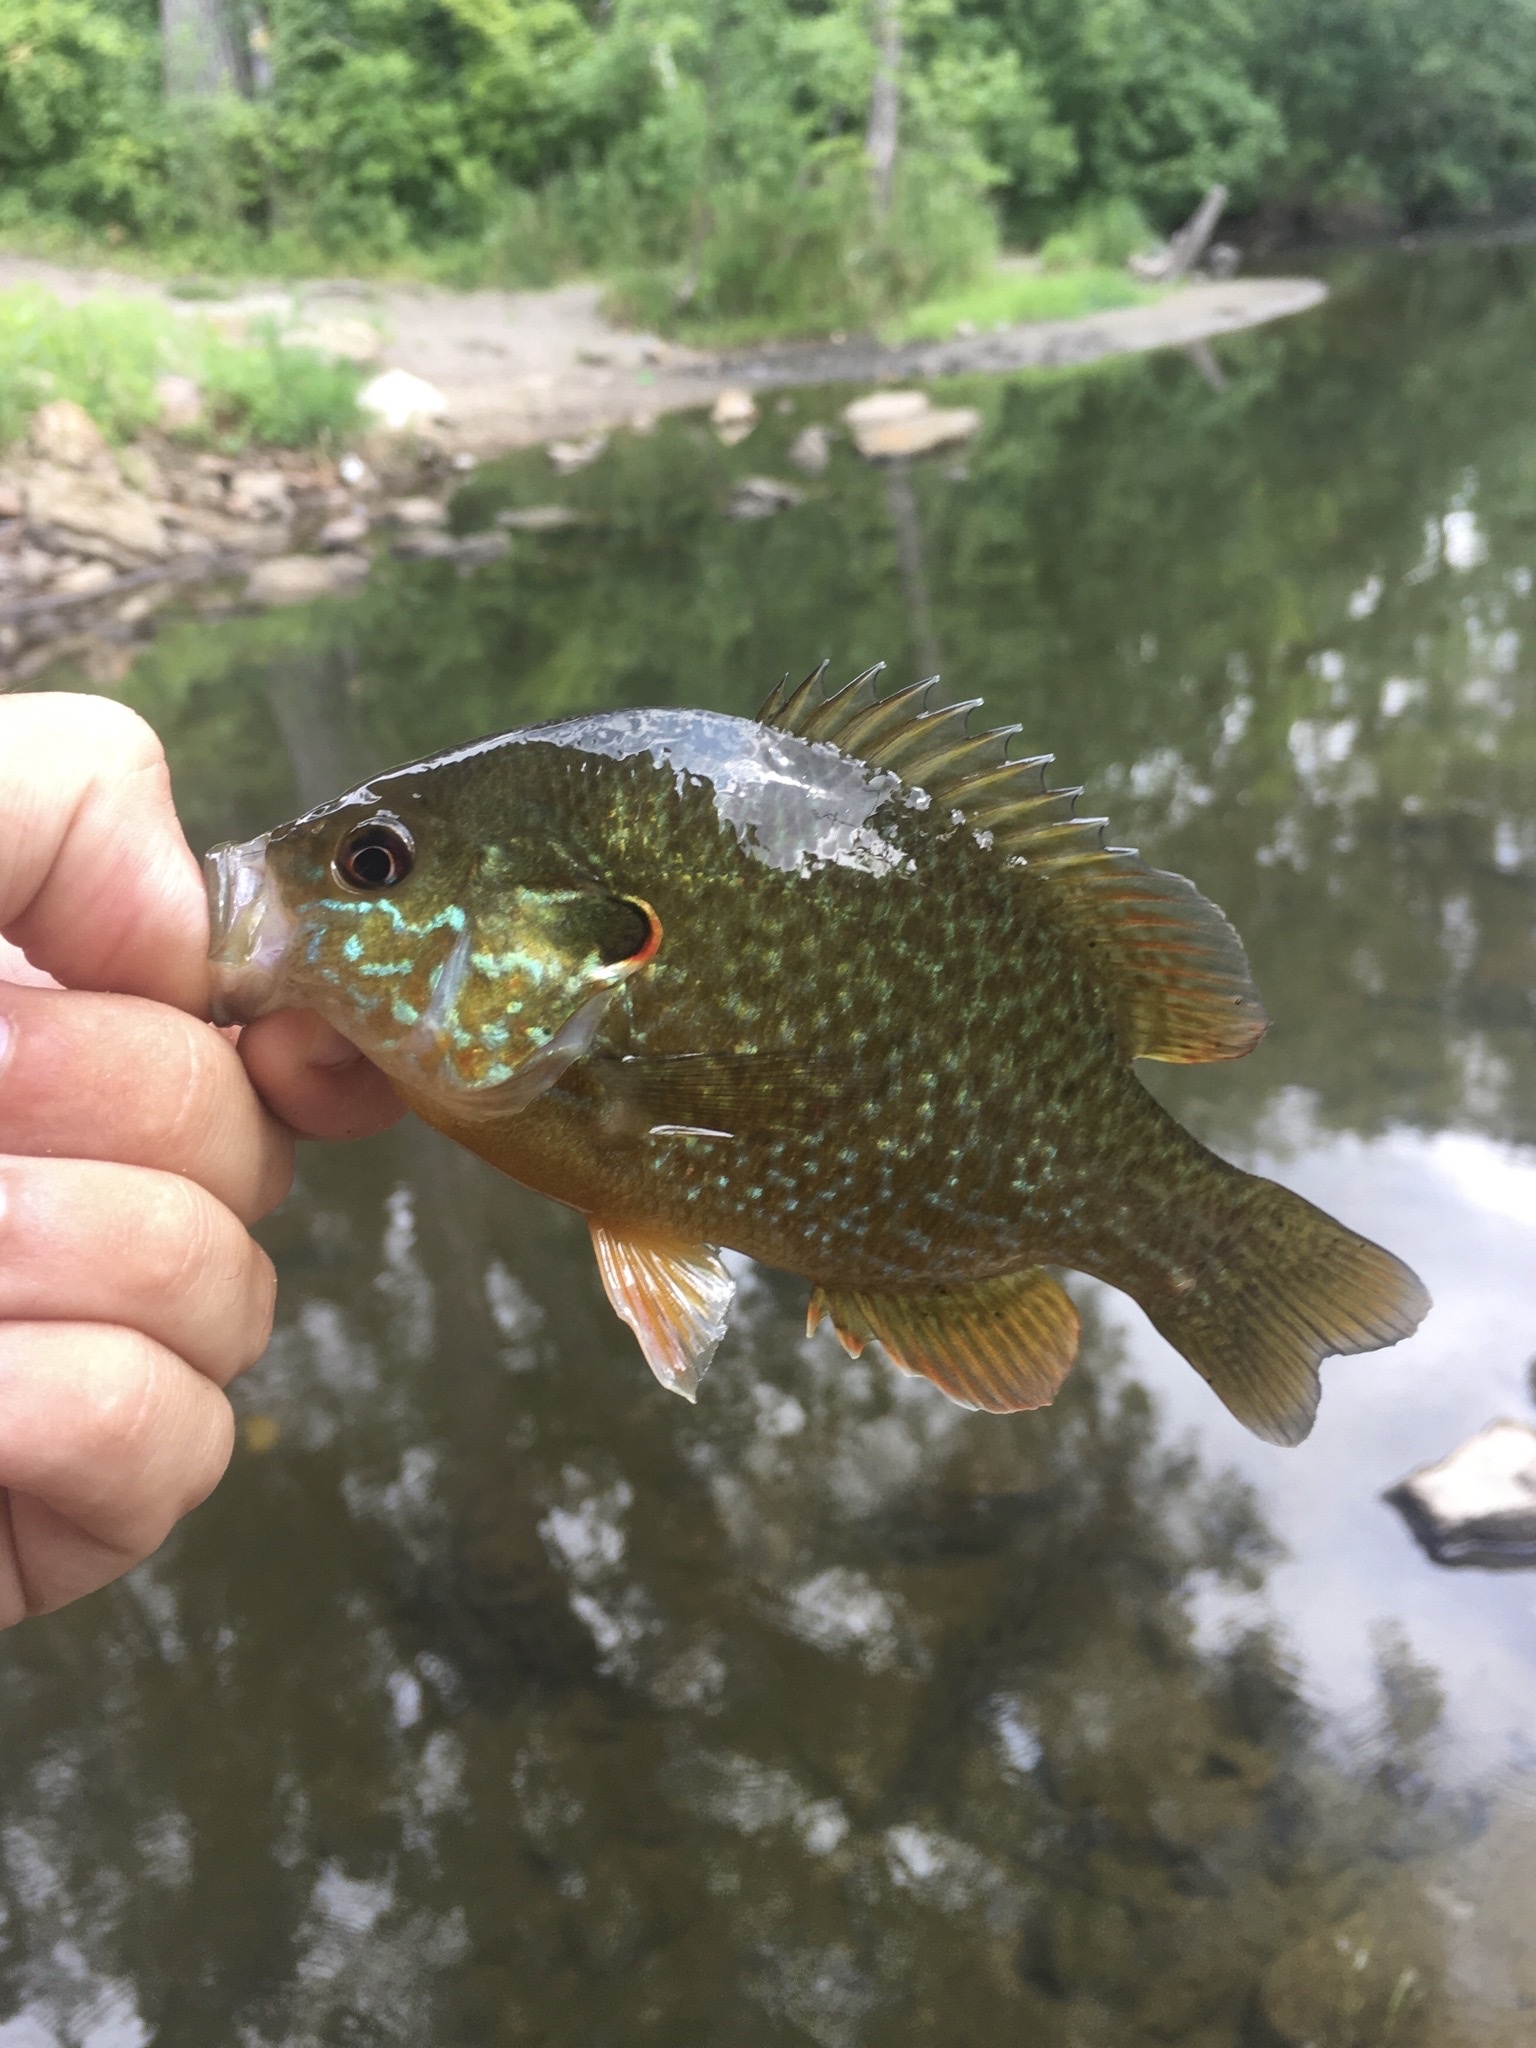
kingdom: Animalia
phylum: Chordata
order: Perciformes
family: Centrarchidae
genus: Lepomis
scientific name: Lepomis
